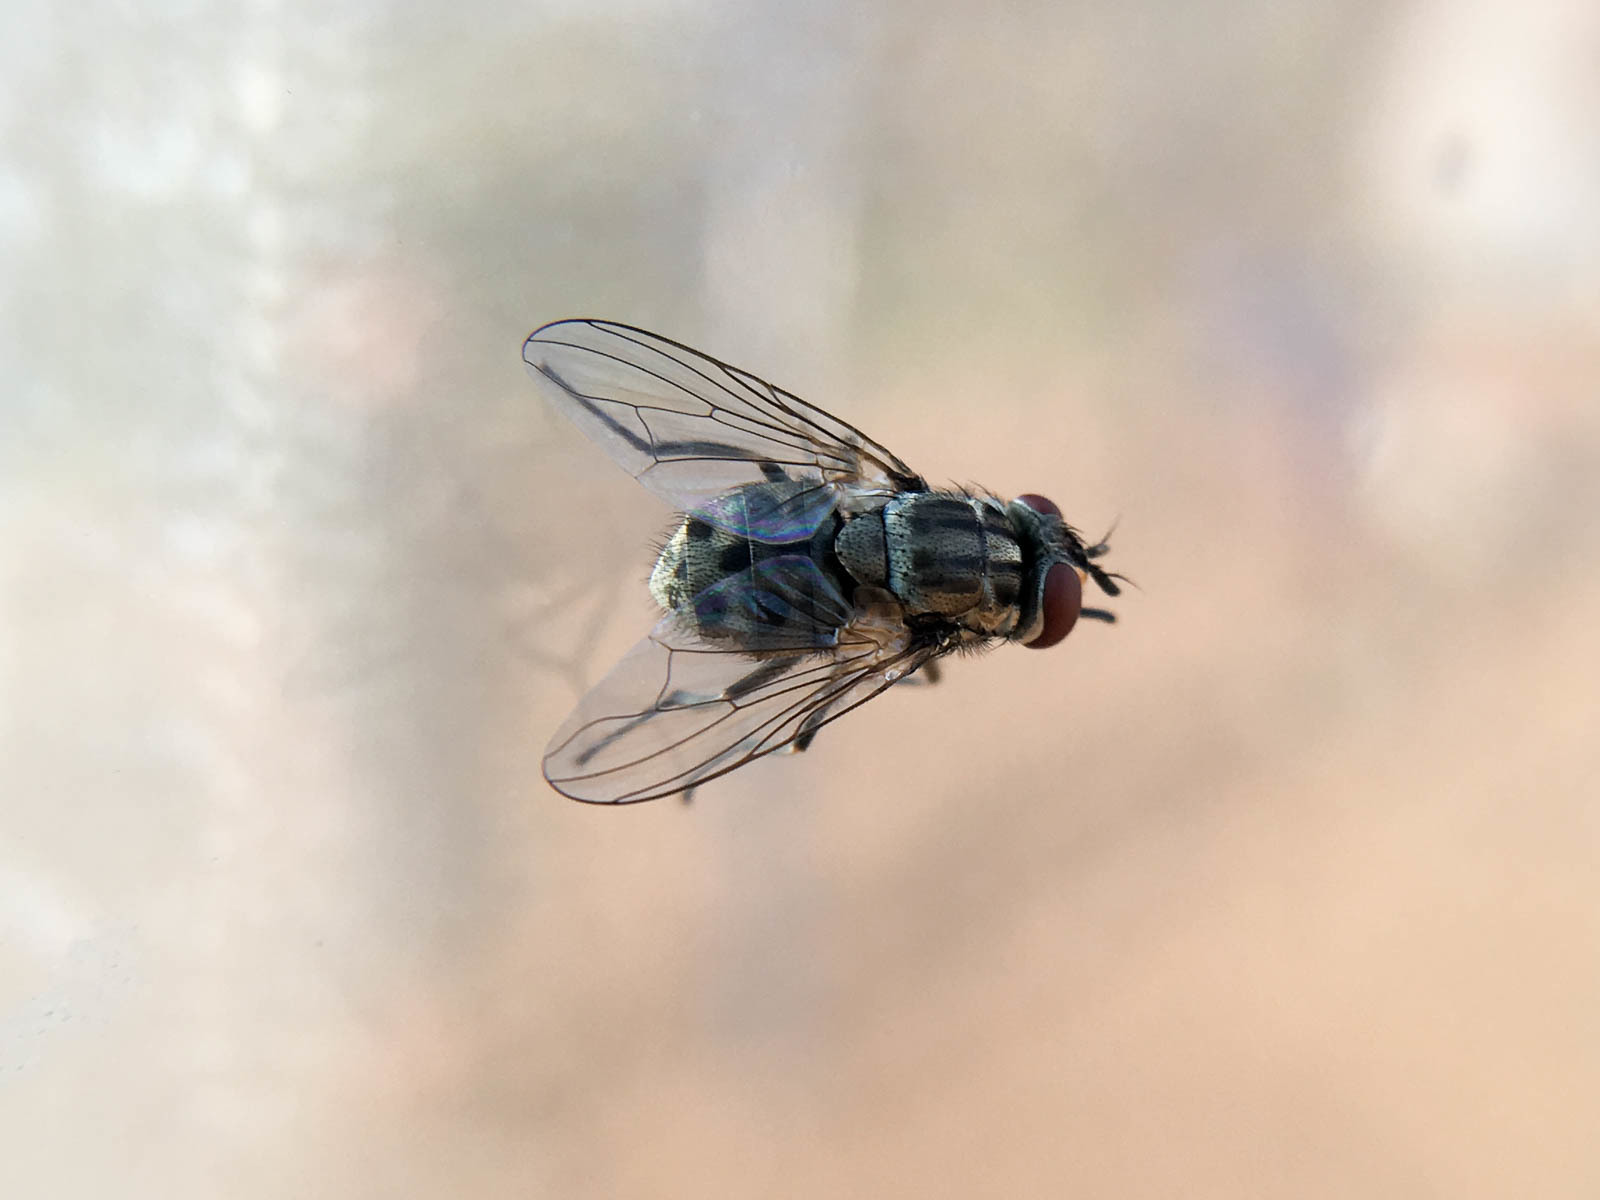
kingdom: Animalia
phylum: Arthropoda
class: Insecta
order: Diptera
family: Muscidae
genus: Stomoxys
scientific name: Stomoxys calcitrans
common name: Stable fly
